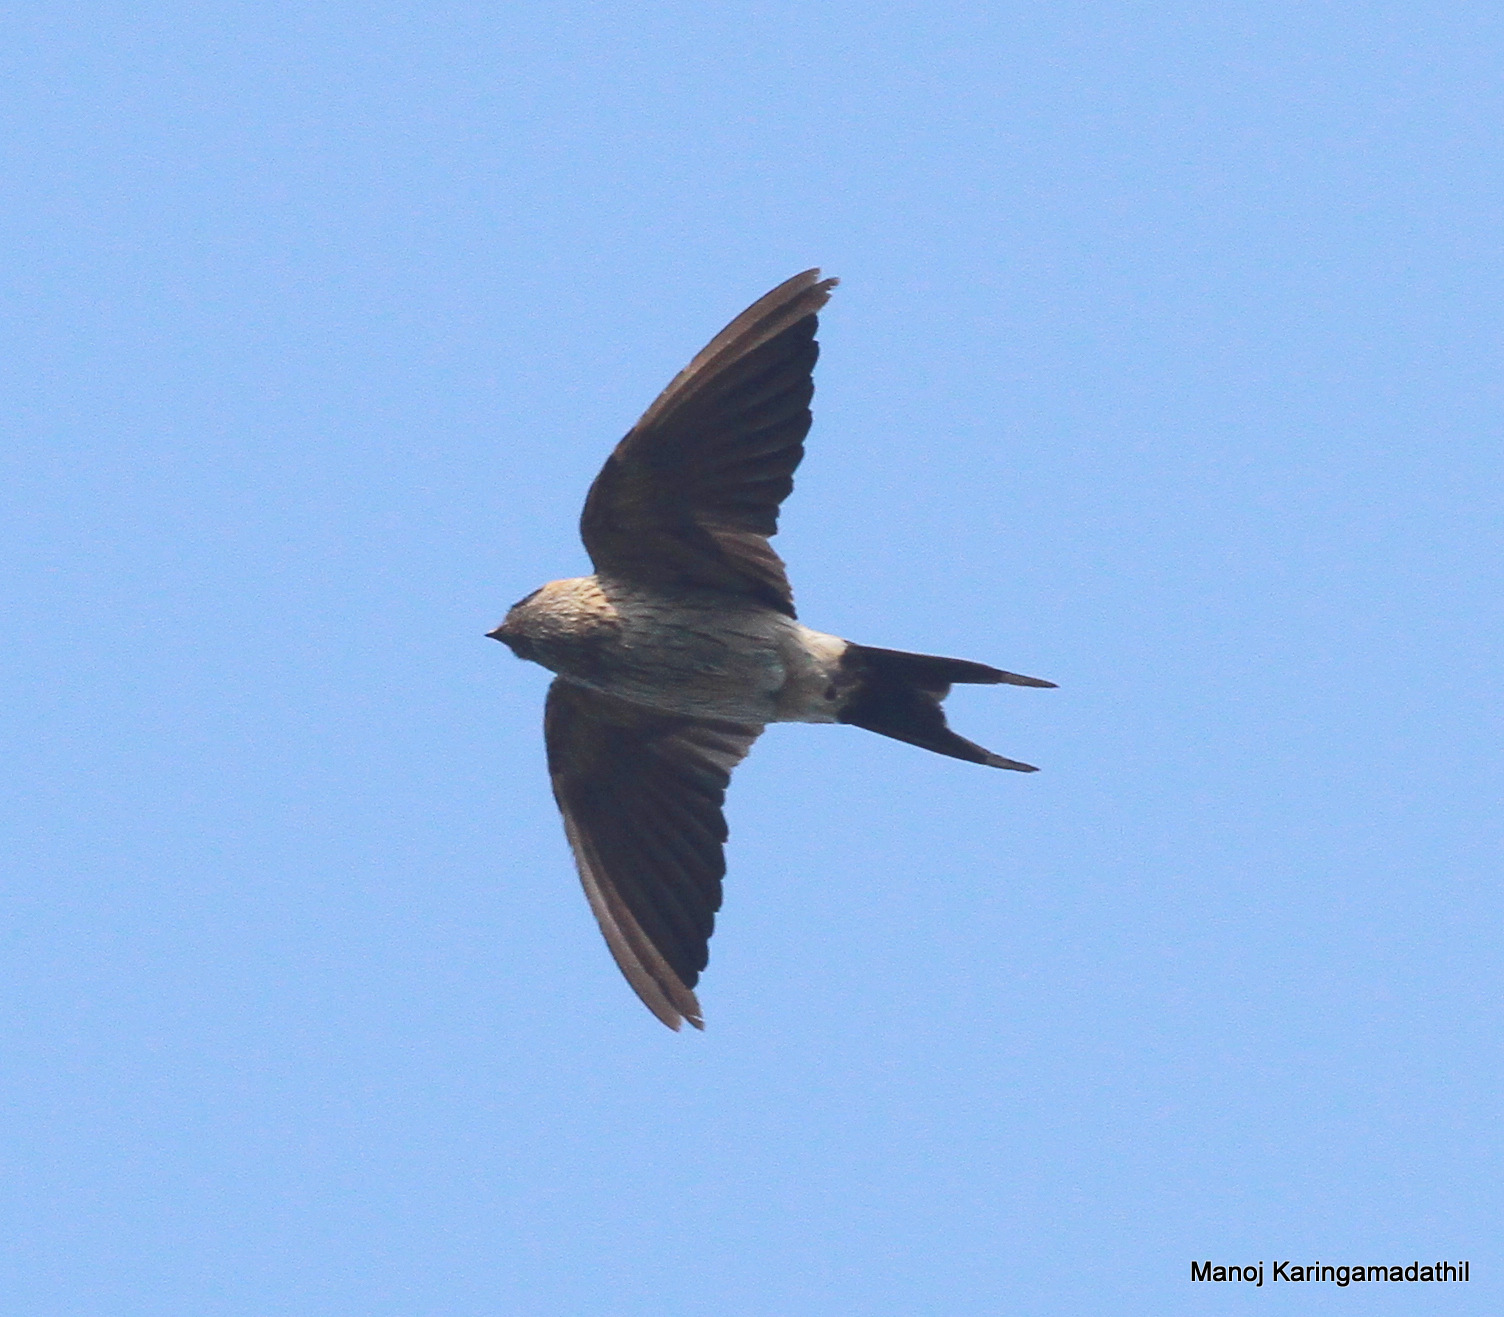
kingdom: Animalia
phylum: Chordata
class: Aves
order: Passeriformes
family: Hirundinidae
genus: Cecropis
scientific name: Cecropis daurica
